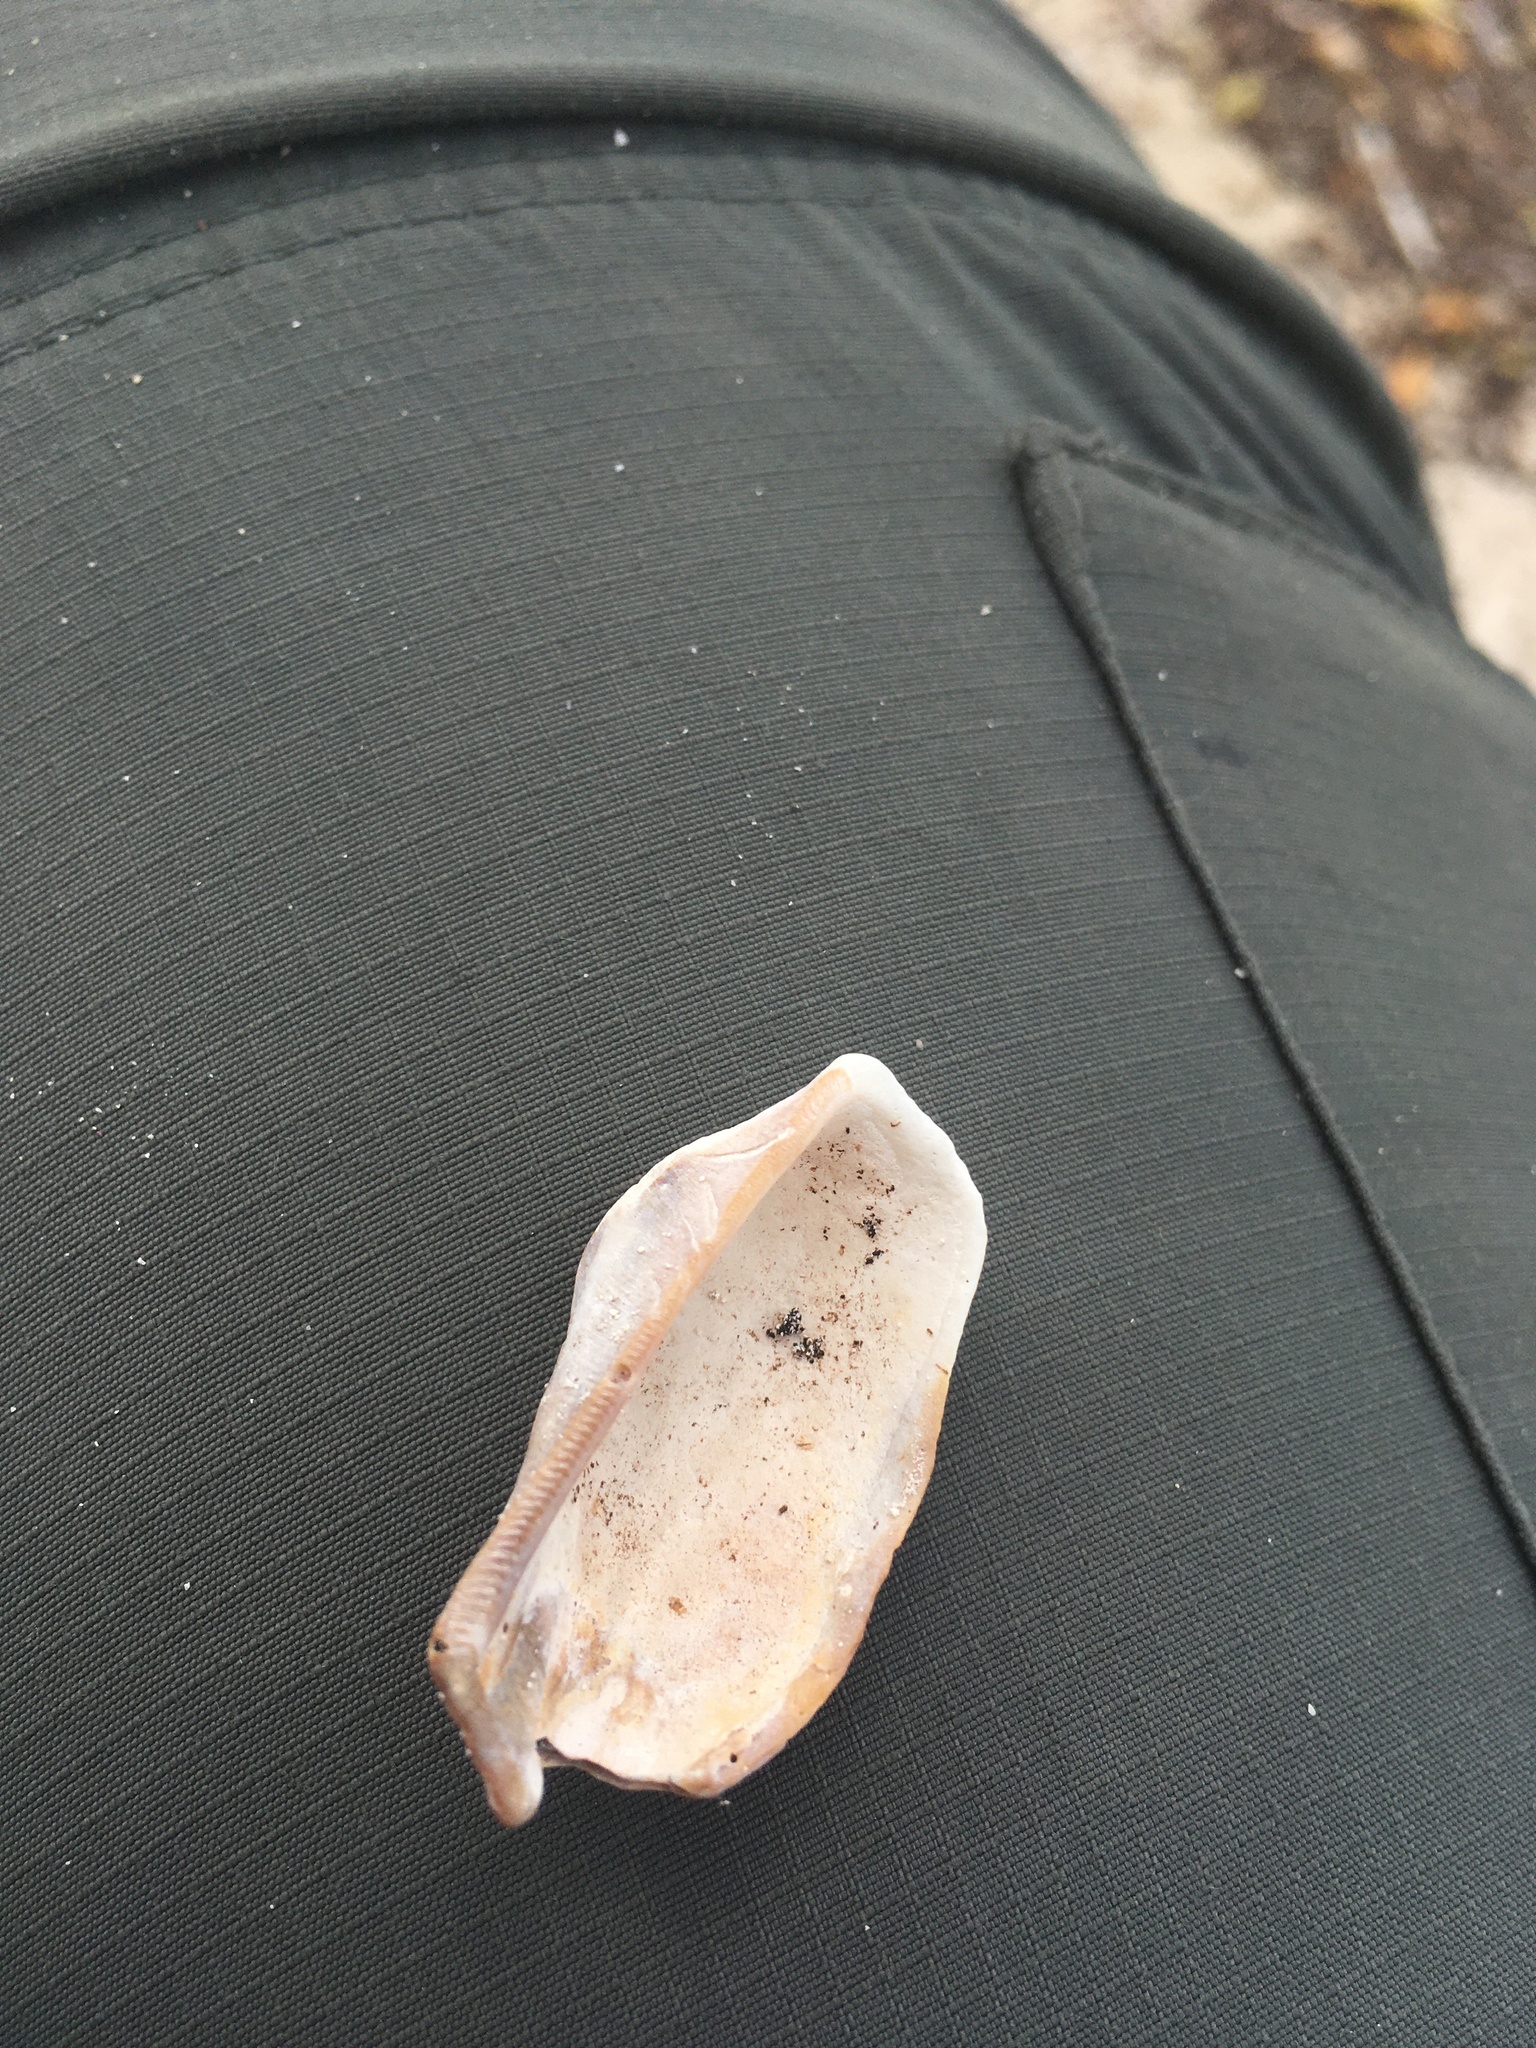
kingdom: Animalia
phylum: Mollusca
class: Bivalvia
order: Arcida
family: Arcidae
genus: Lamarcka
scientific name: Lamarcka imbricata
